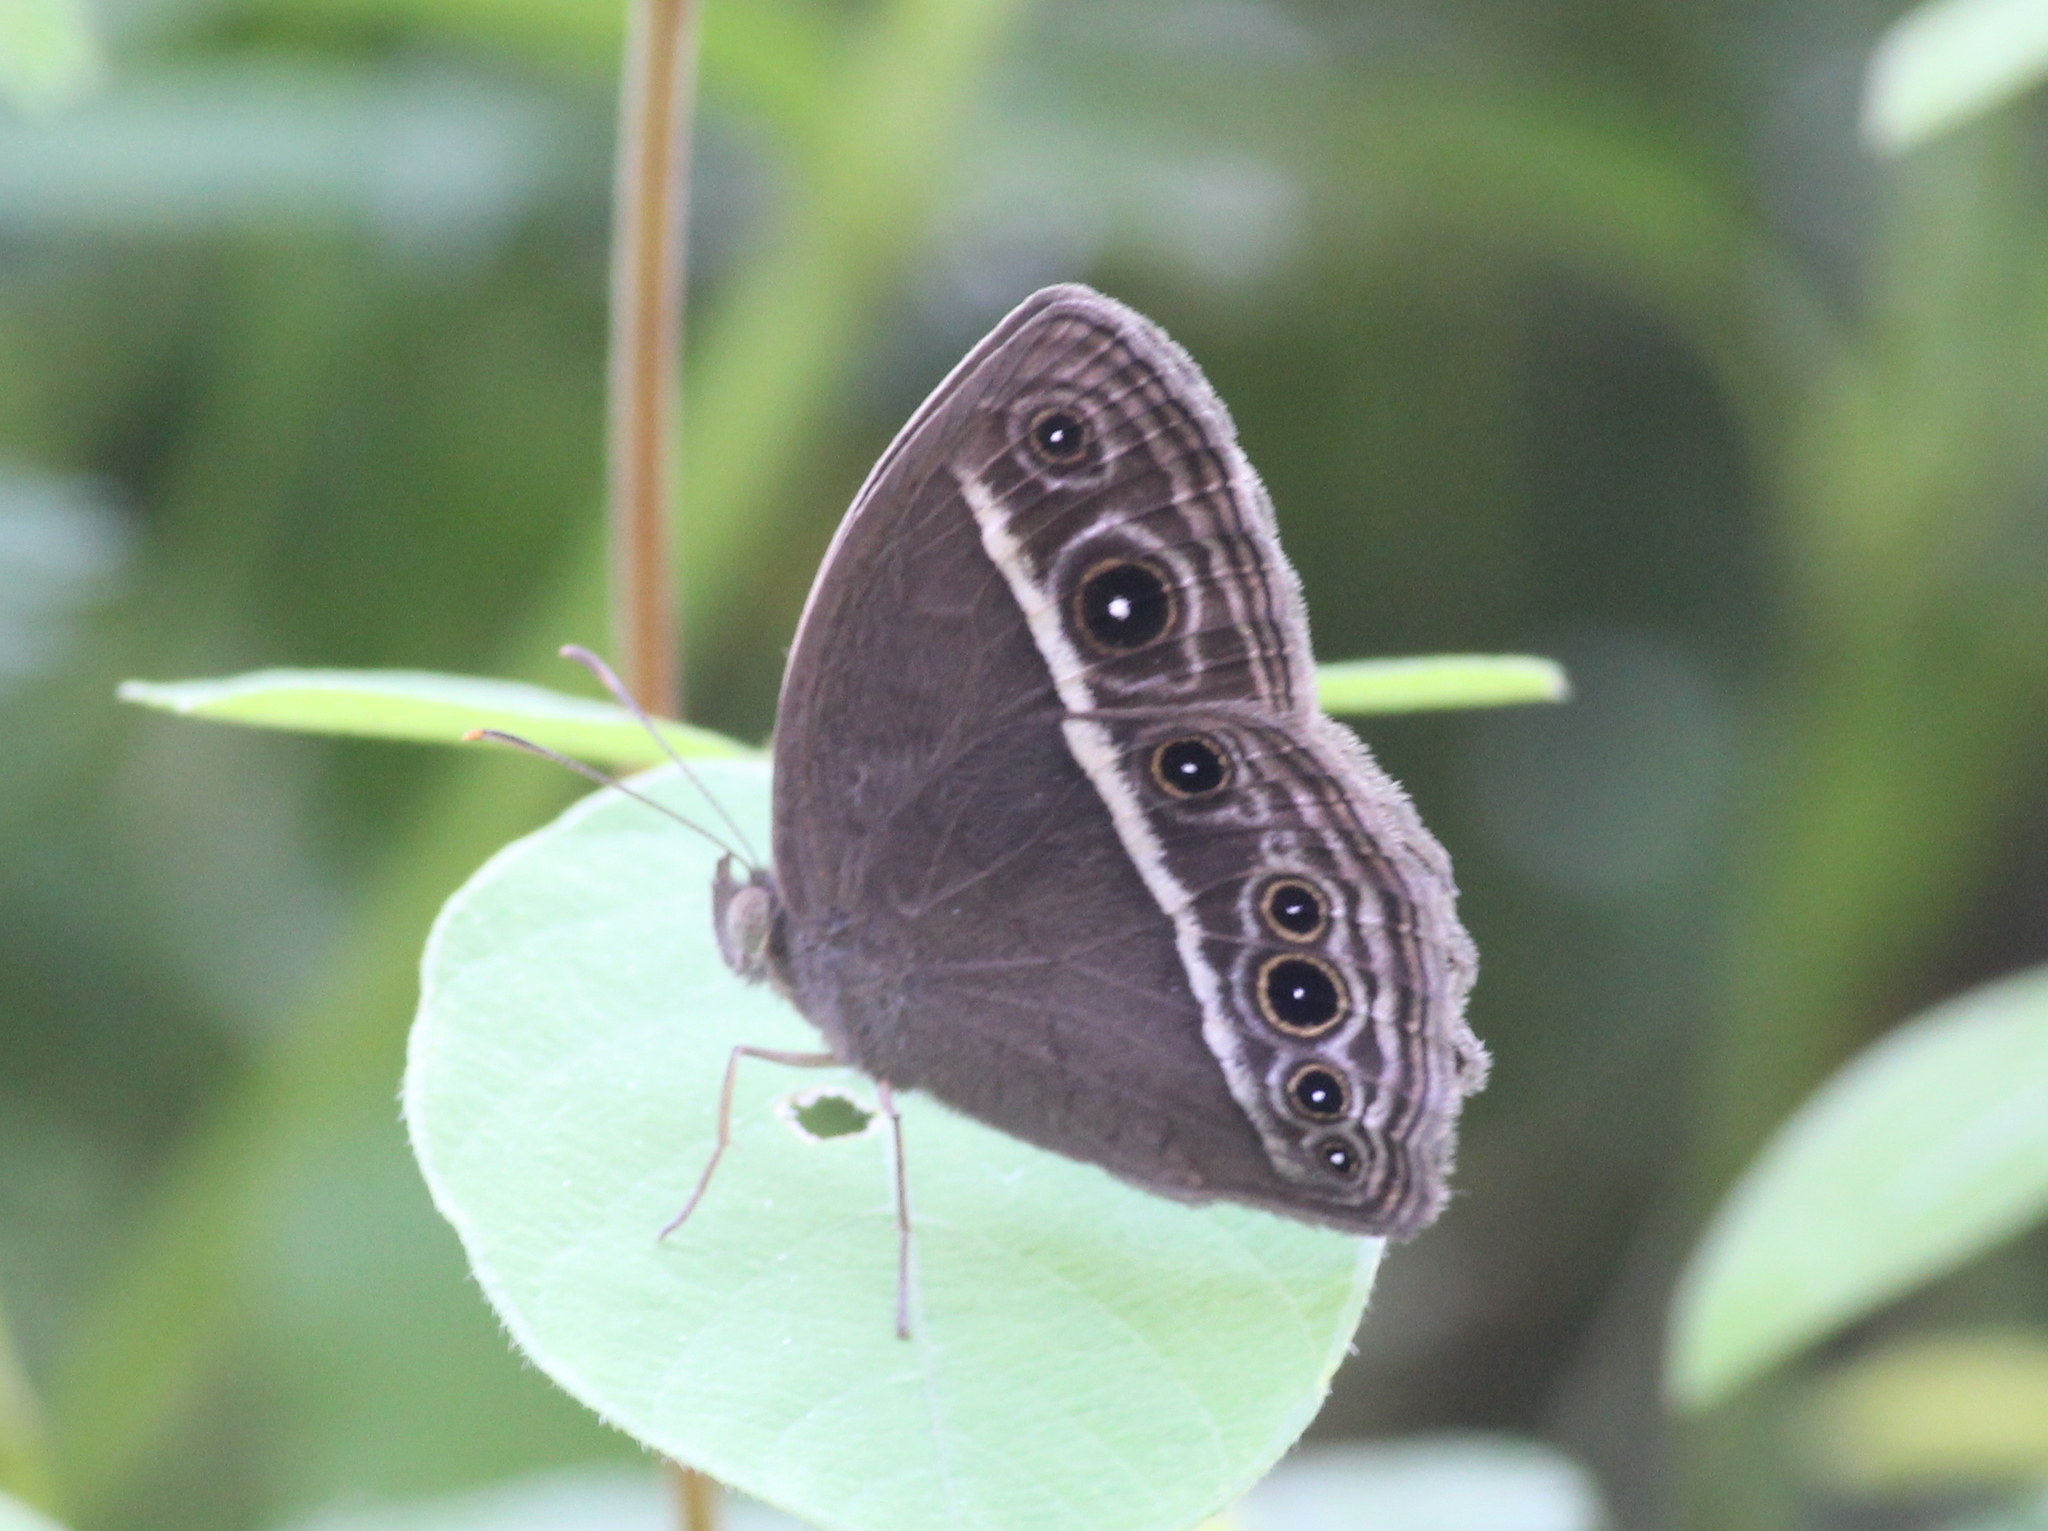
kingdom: Animalia
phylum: Arthropoda
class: Insecta
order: Lepidoptera
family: Nymphalidae
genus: Mycalesis
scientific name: Mycalesis mineus
